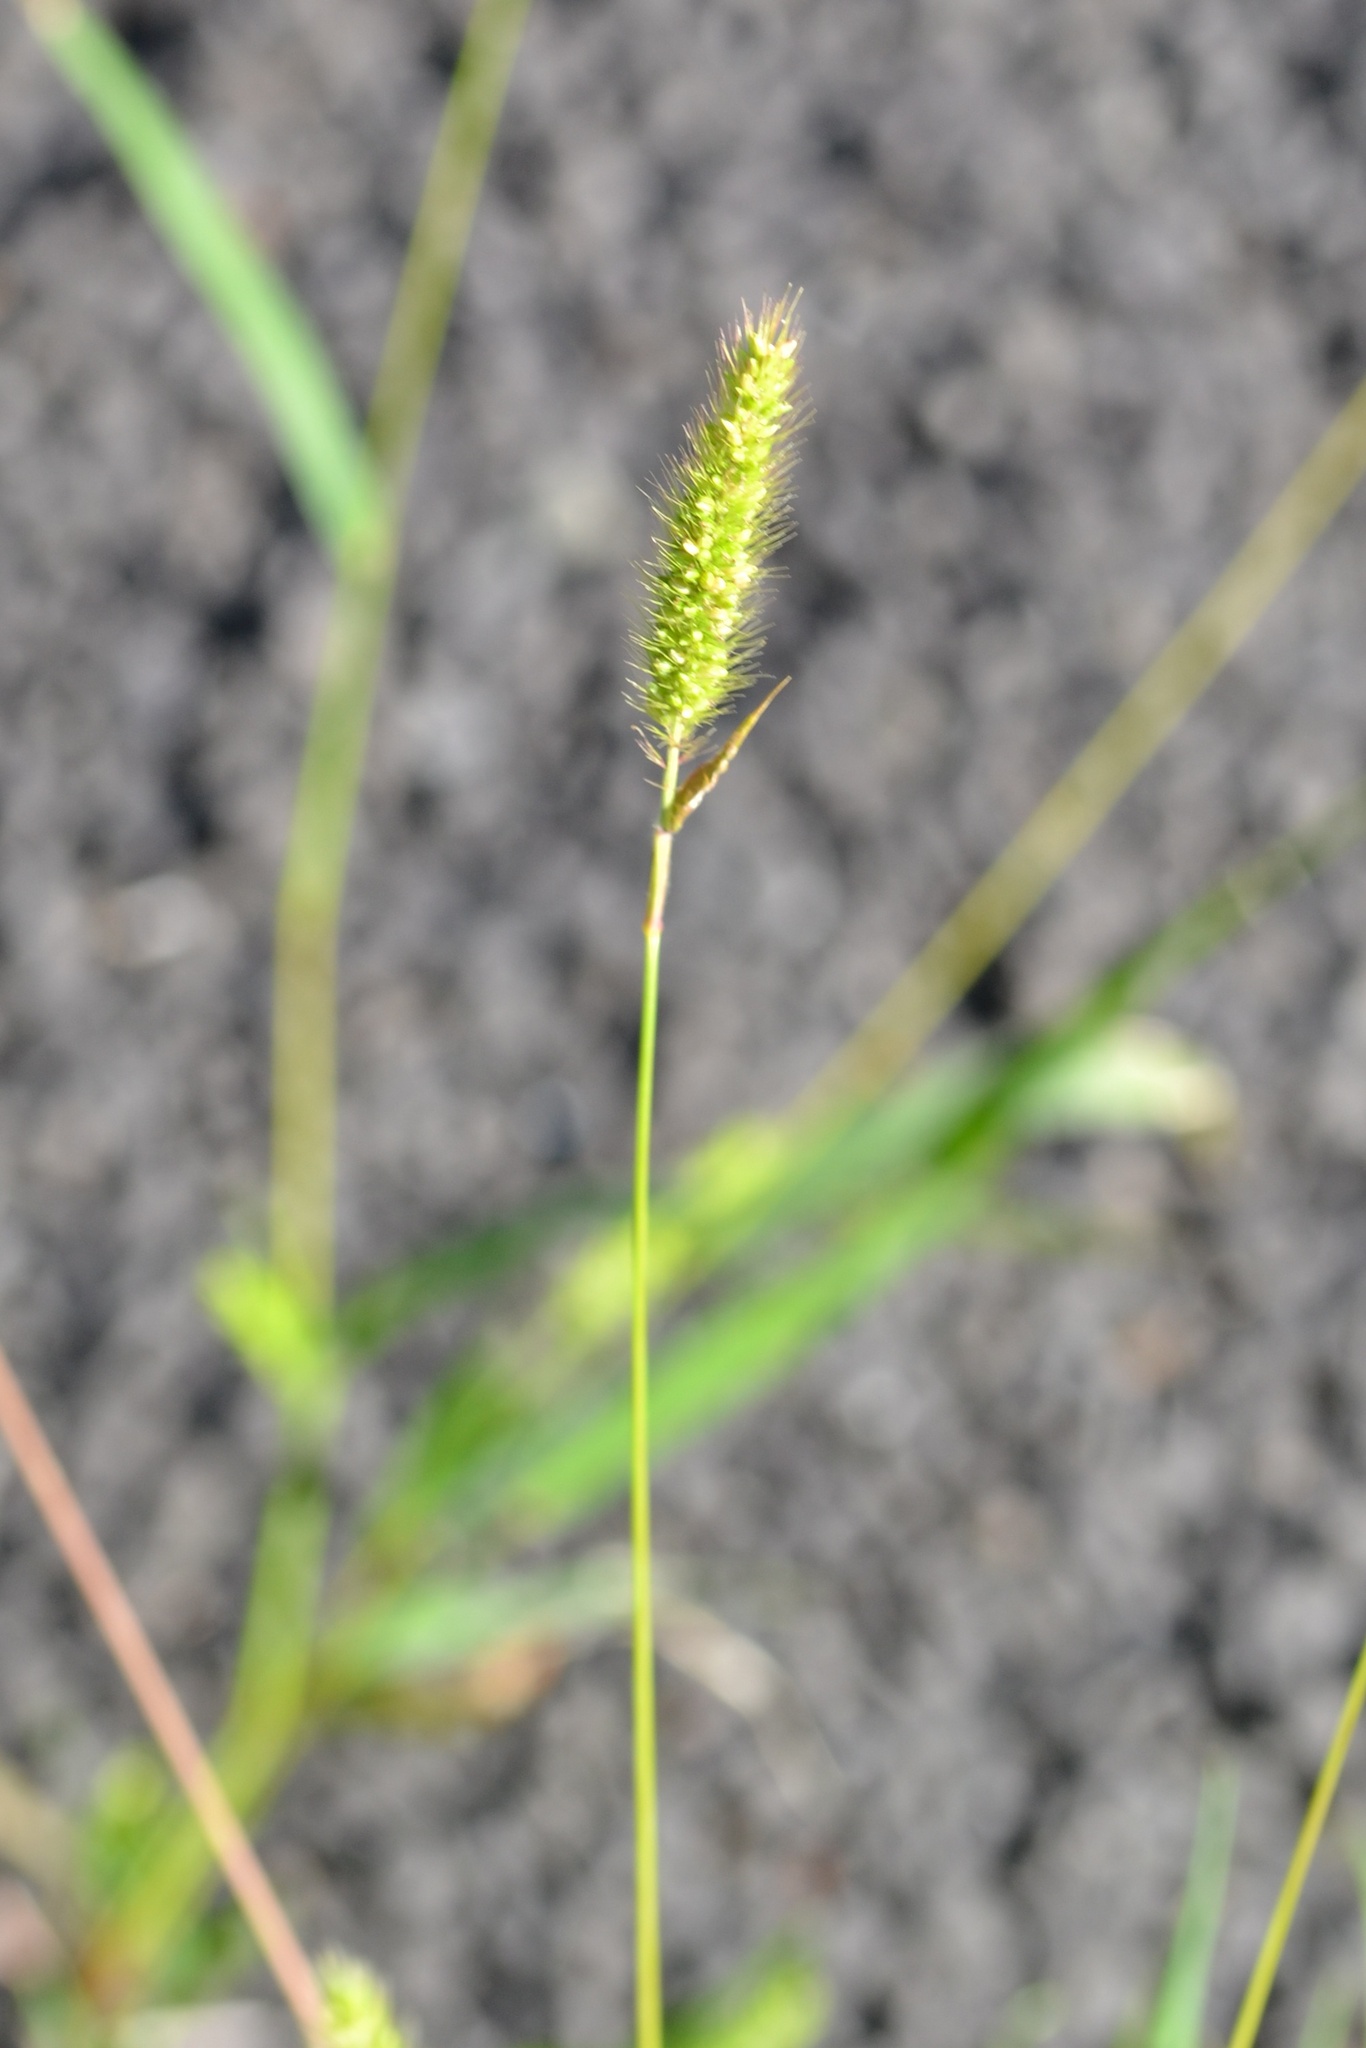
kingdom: Plantae
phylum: Tracheophyta
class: Liliopsida
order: Poales
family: Poaceae
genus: Setaria
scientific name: Setaria viridis
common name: Green bristlegrass
